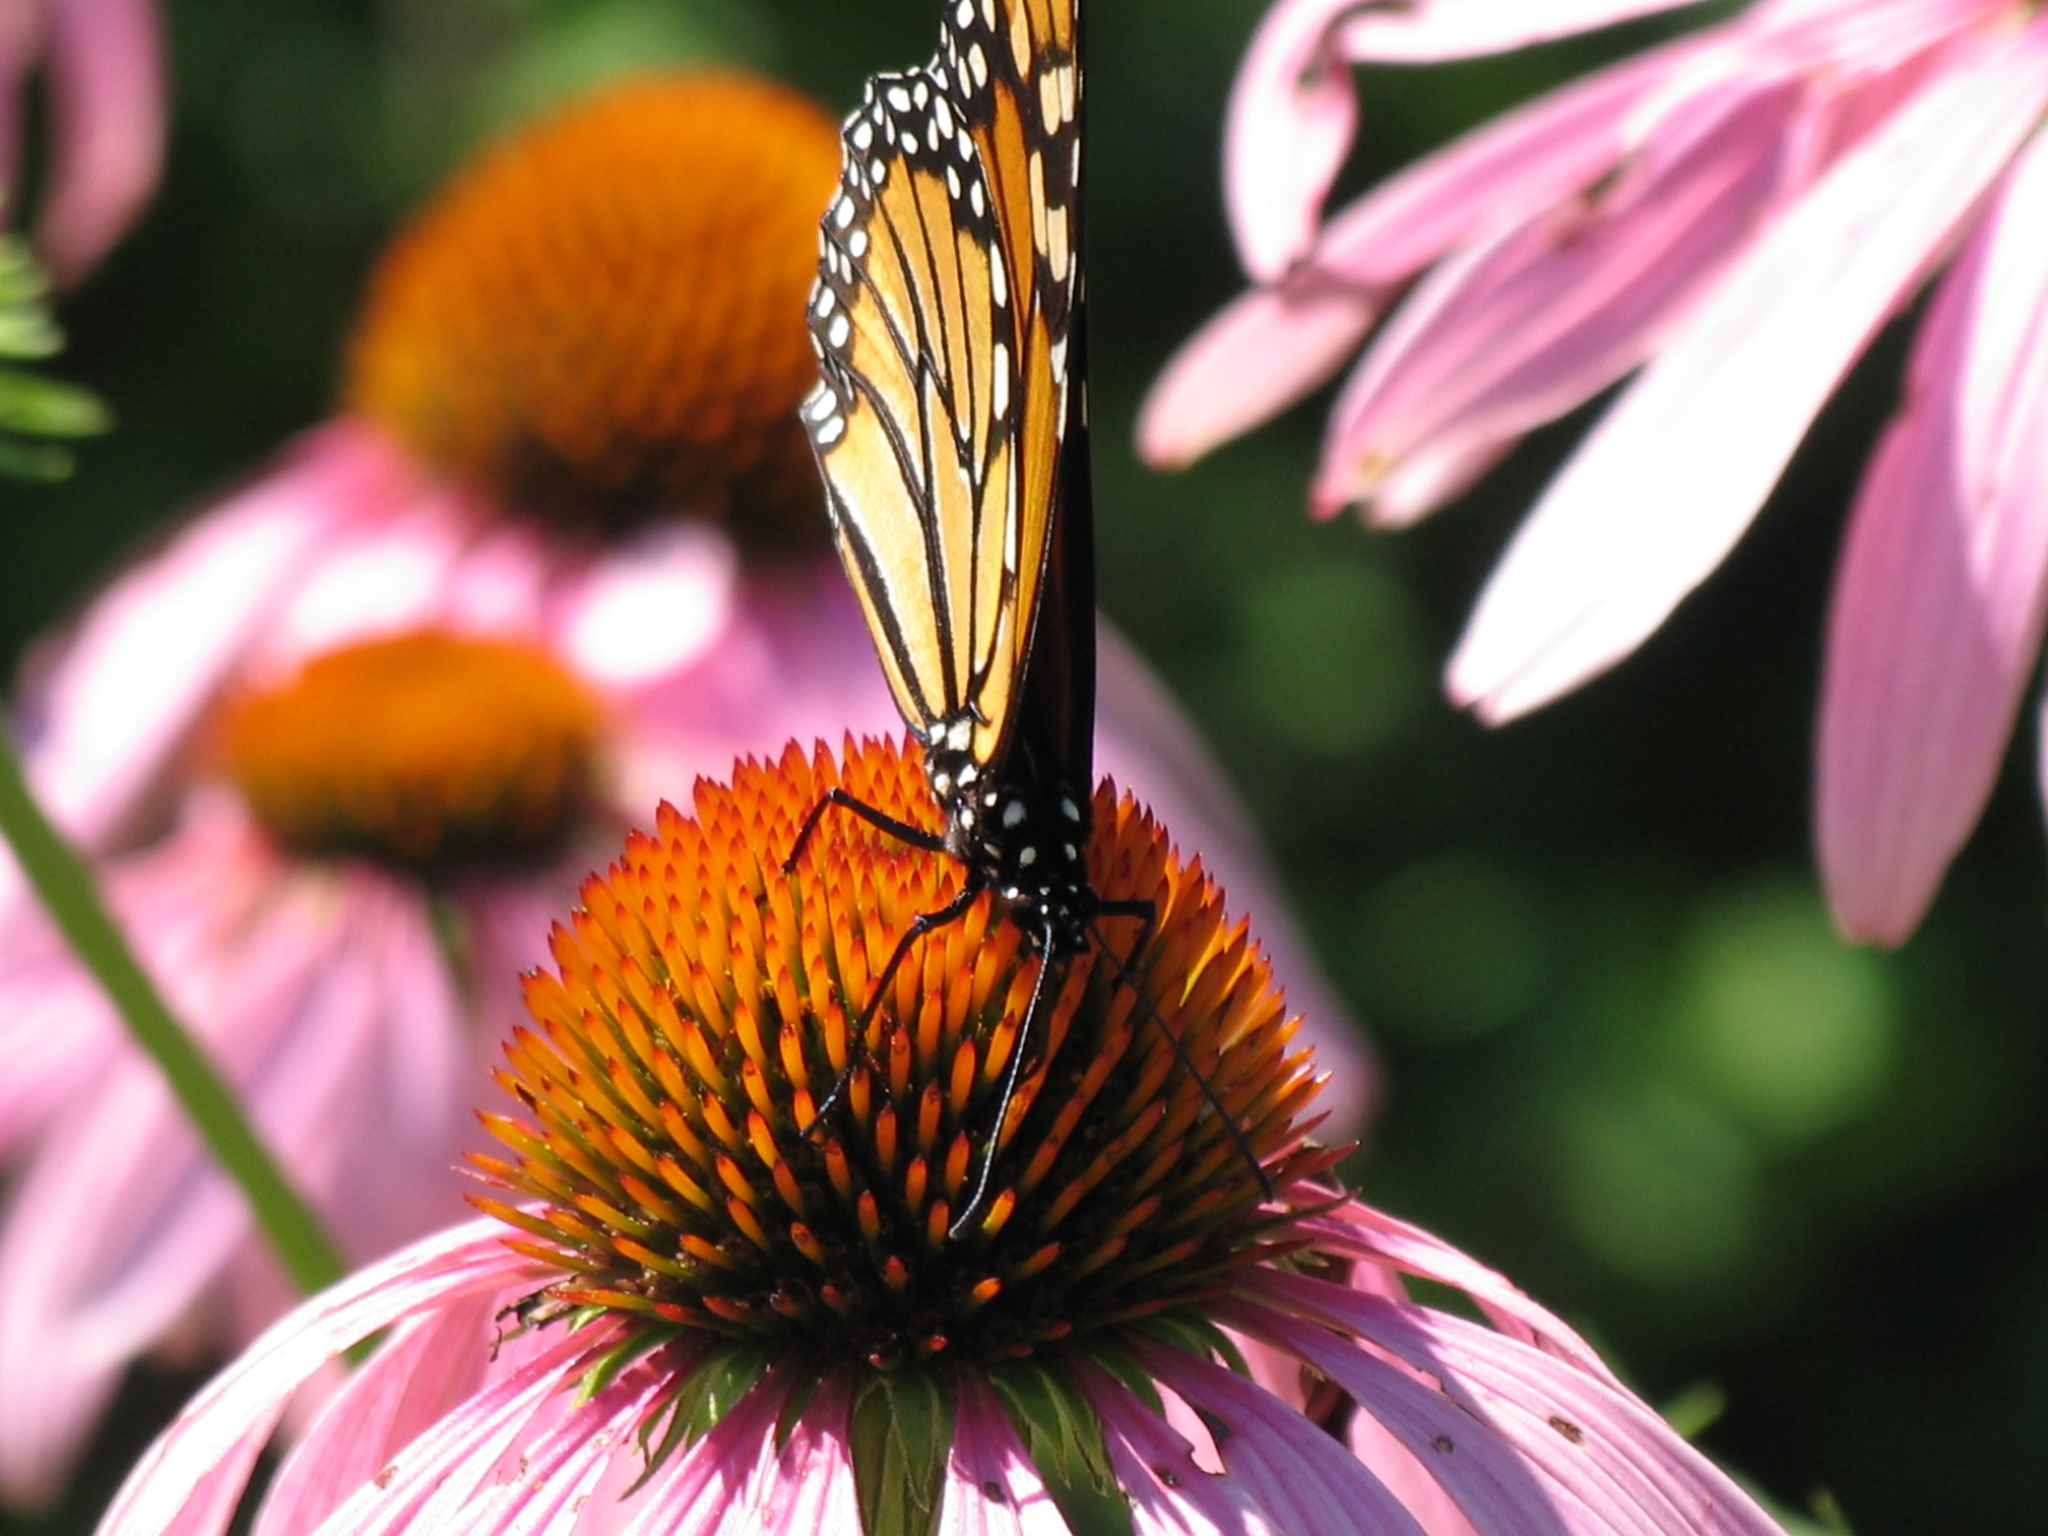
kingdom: Animalia
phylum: Arthropoda
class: Insecta
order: Lepidoptera
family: Nymphalidae
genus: Danaus
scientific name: Danaus plexippus
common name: Monarch
